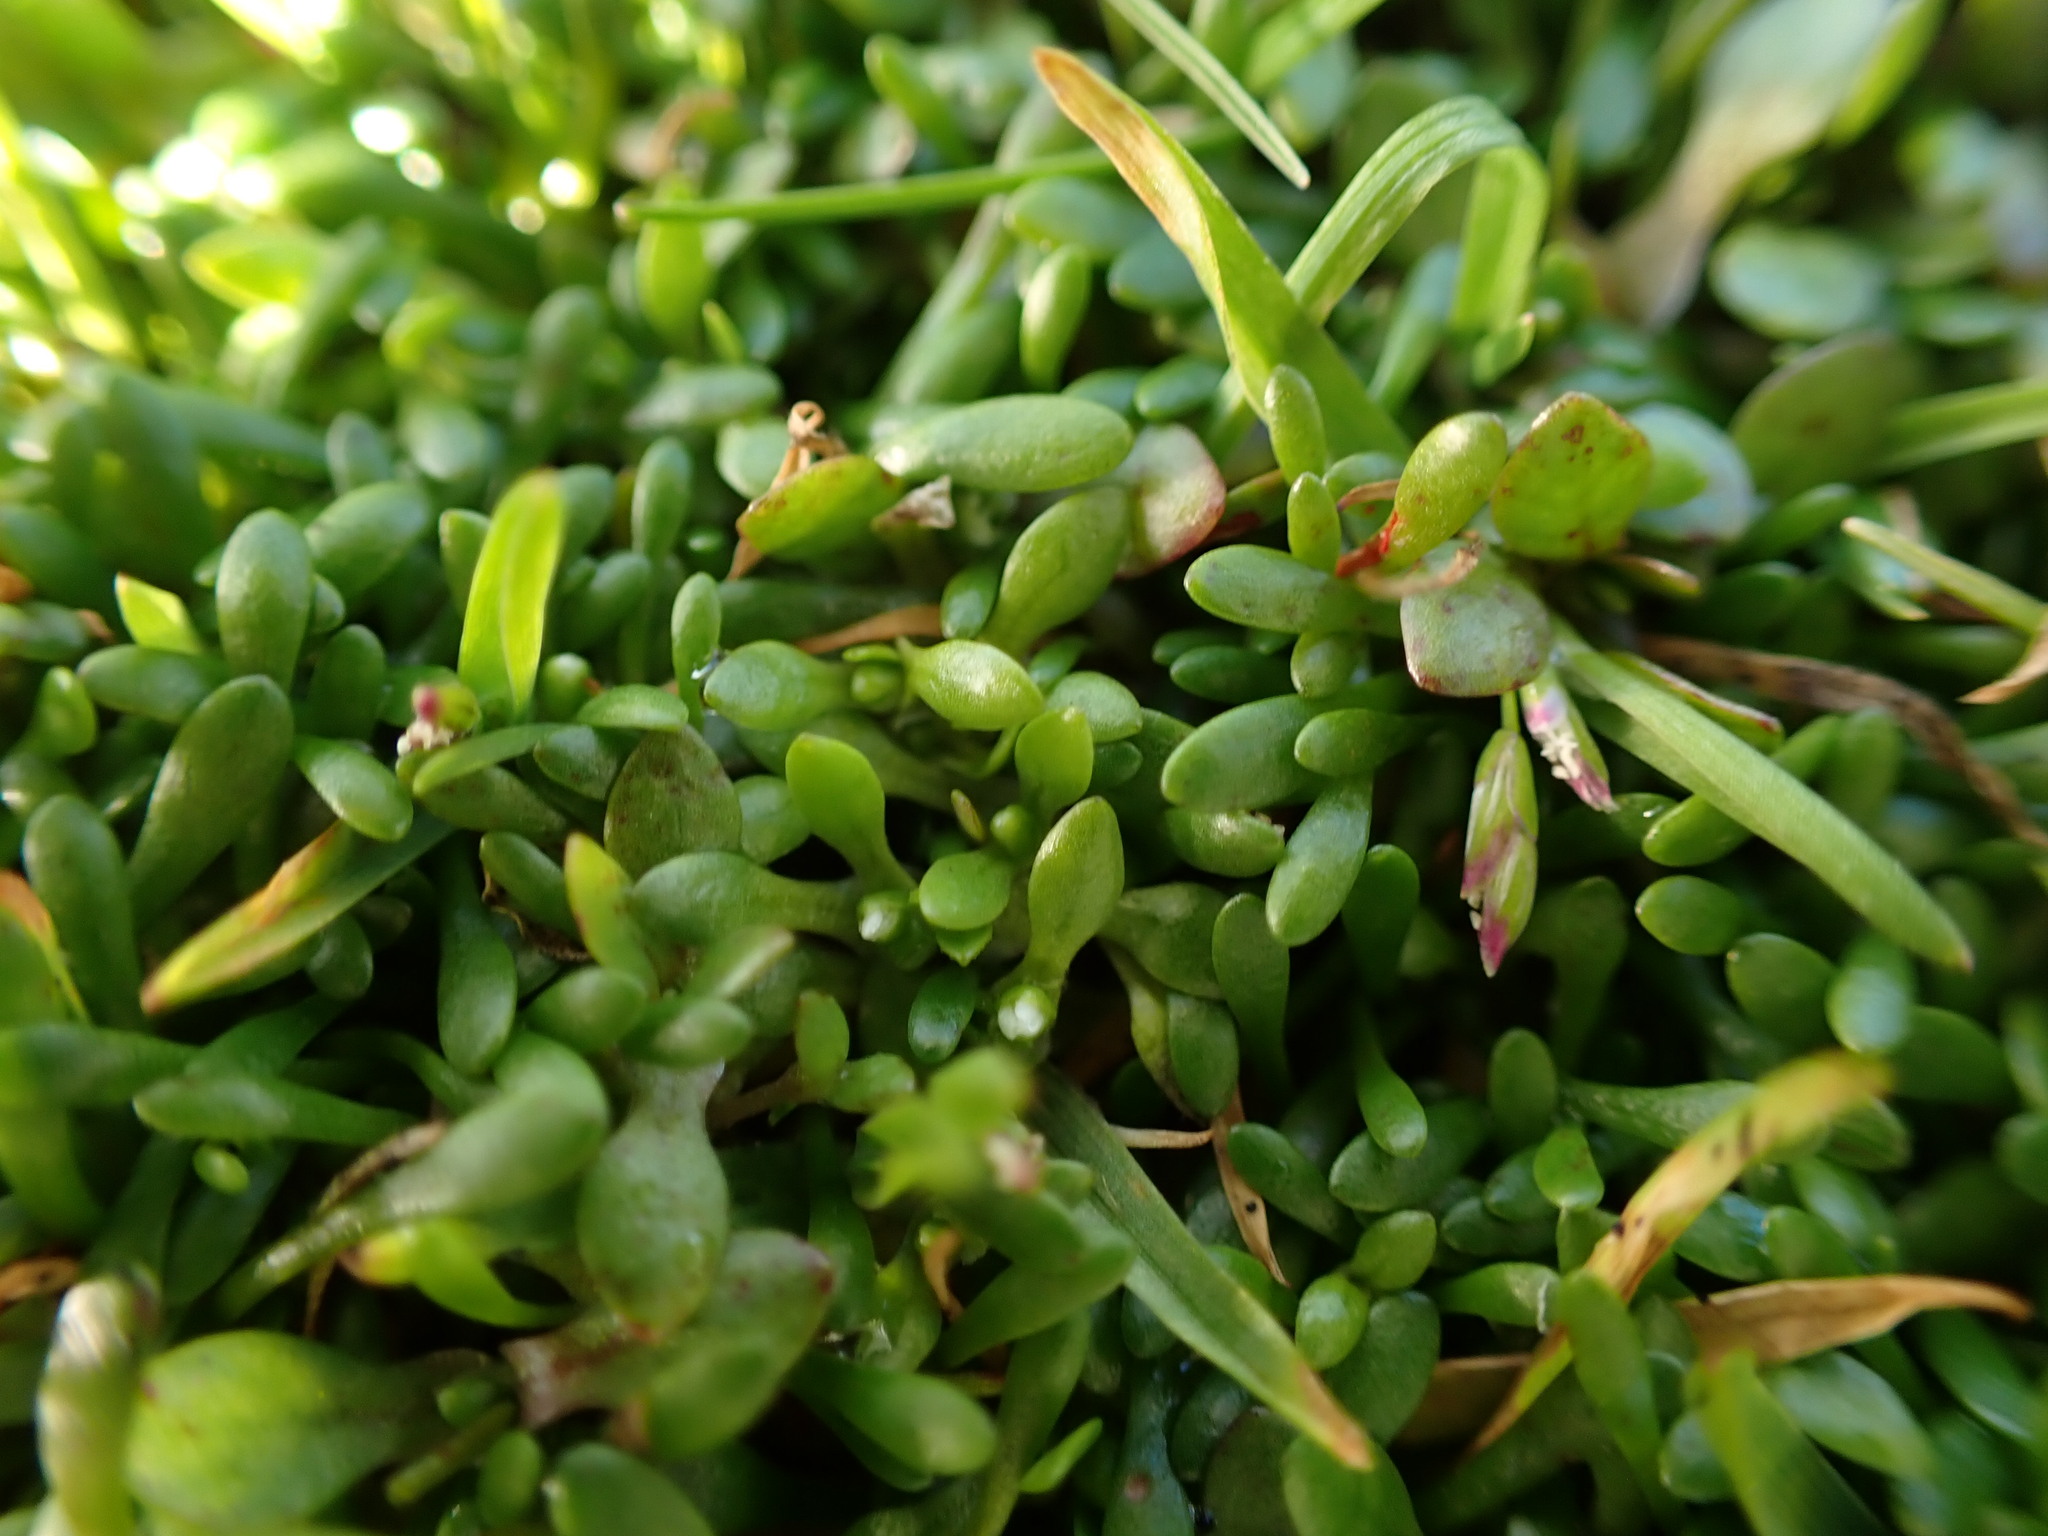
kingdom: Plantae
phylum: Tracheophyta
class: Magnoliopsida
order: Caryophyllales
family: Montiaceae
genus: Montia
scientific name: Montia fontana
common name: Blinks
